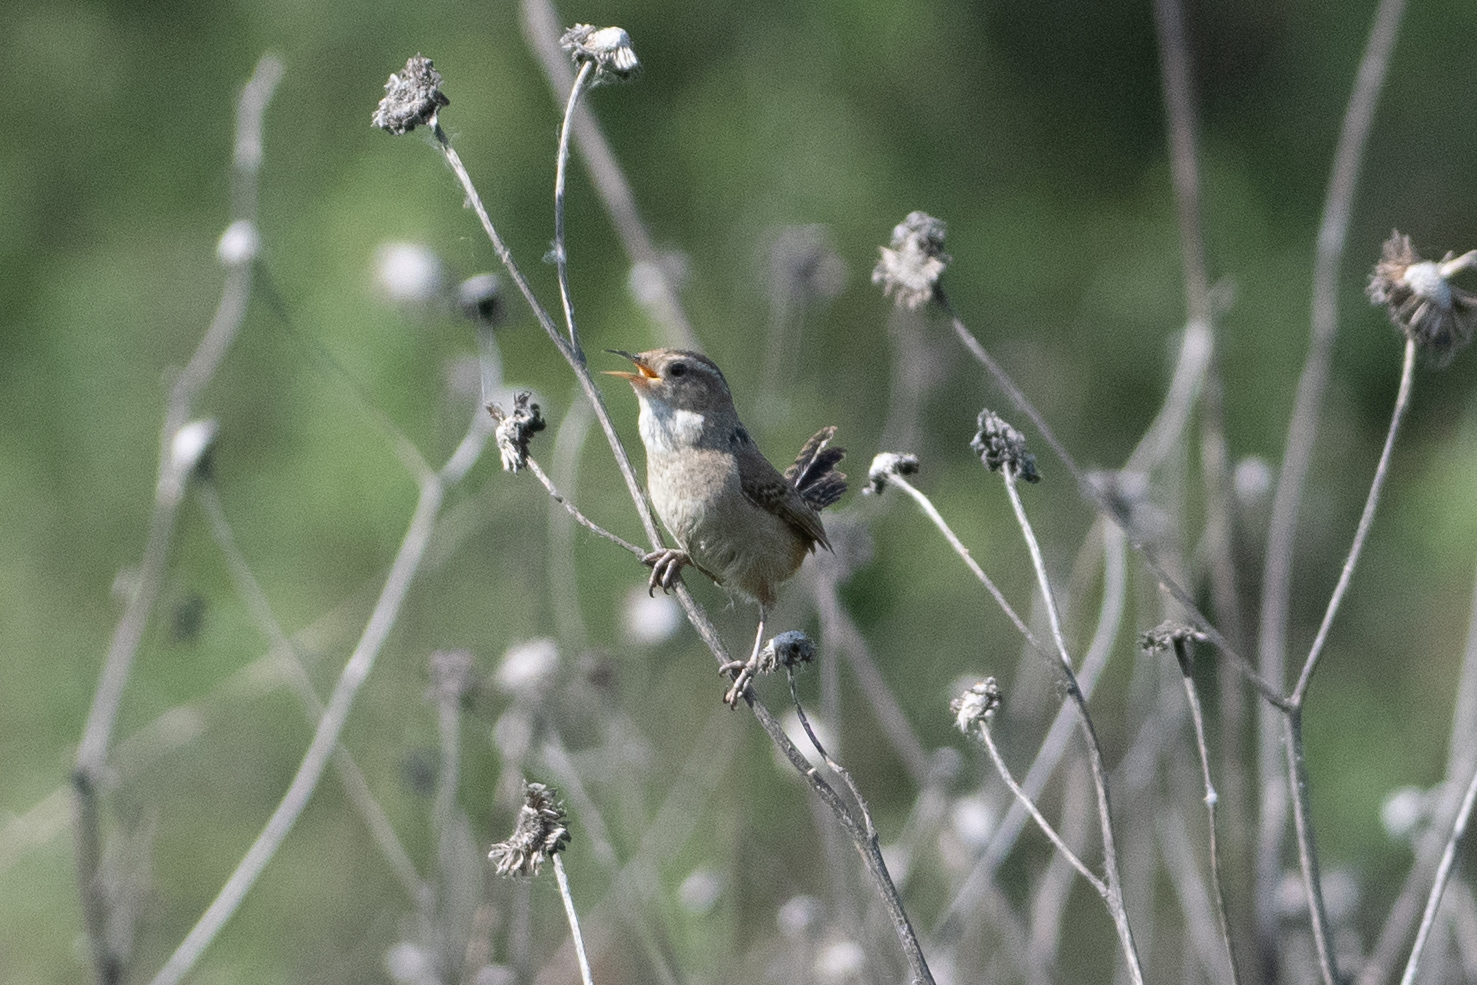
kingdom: Animalia
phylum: Chordata
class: Aves
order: Passeriformes
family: Troglodytidae
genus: Cistothorus
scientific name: Cistothorus palustris
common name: Marsh wren
